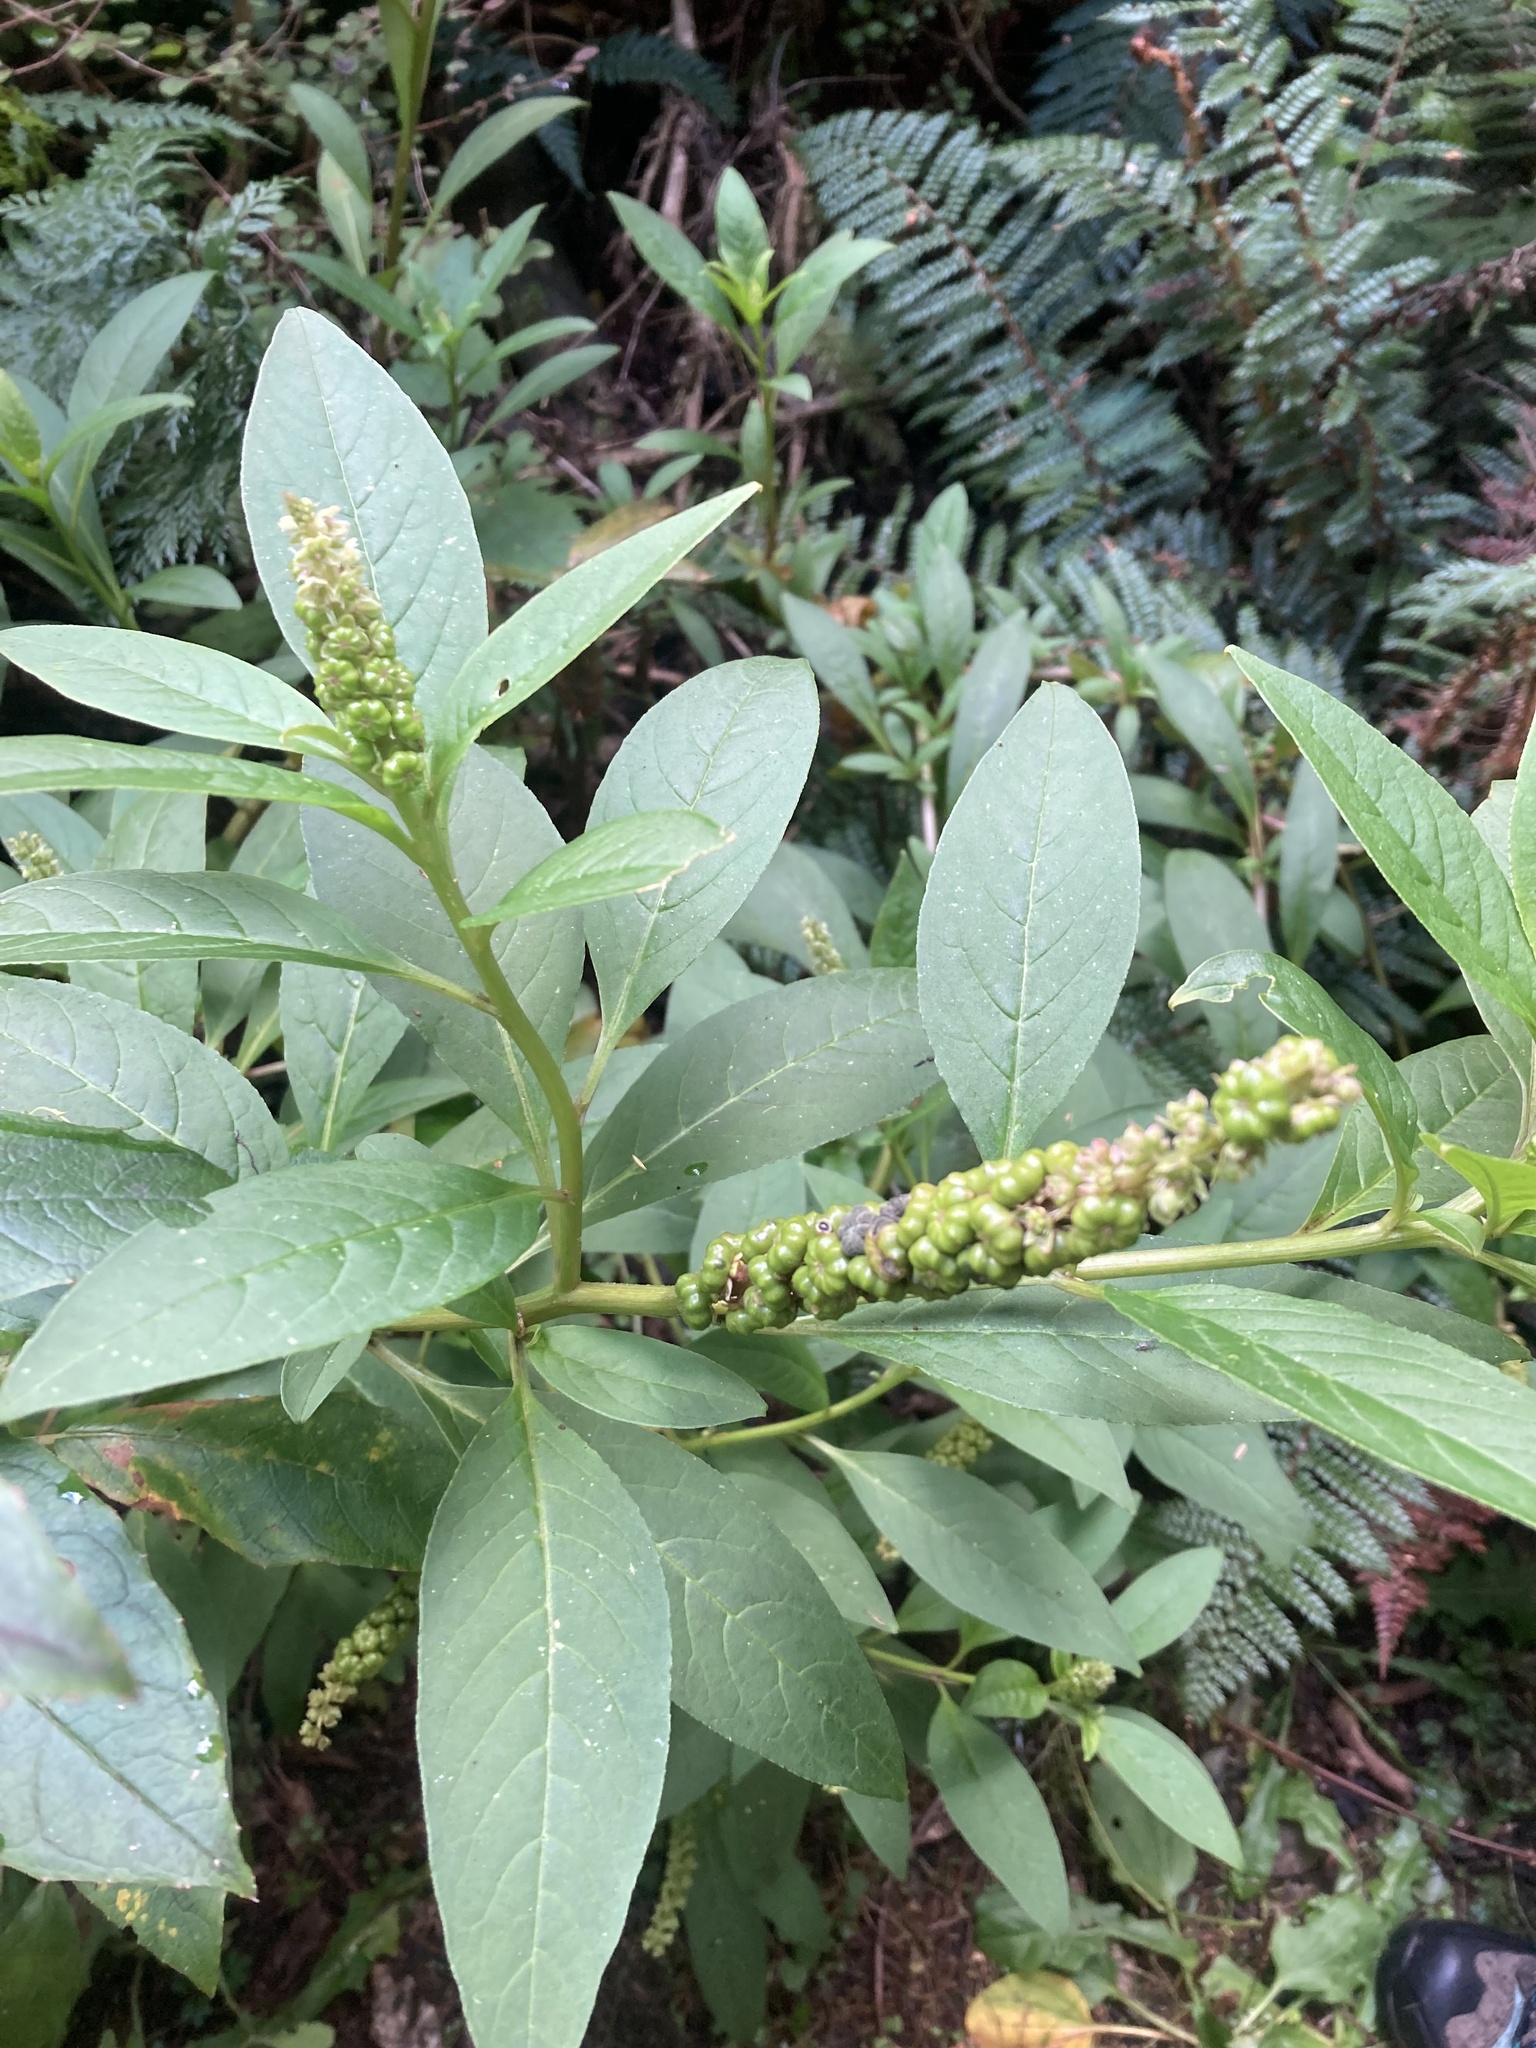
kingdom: Plantae
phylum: Tracheophyta
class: Magnoliopsida
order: Caryophyllales
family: Phytolaccaceae
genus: Phytolacca
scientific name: Phytolacca icosandra
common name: Button pokeweed
